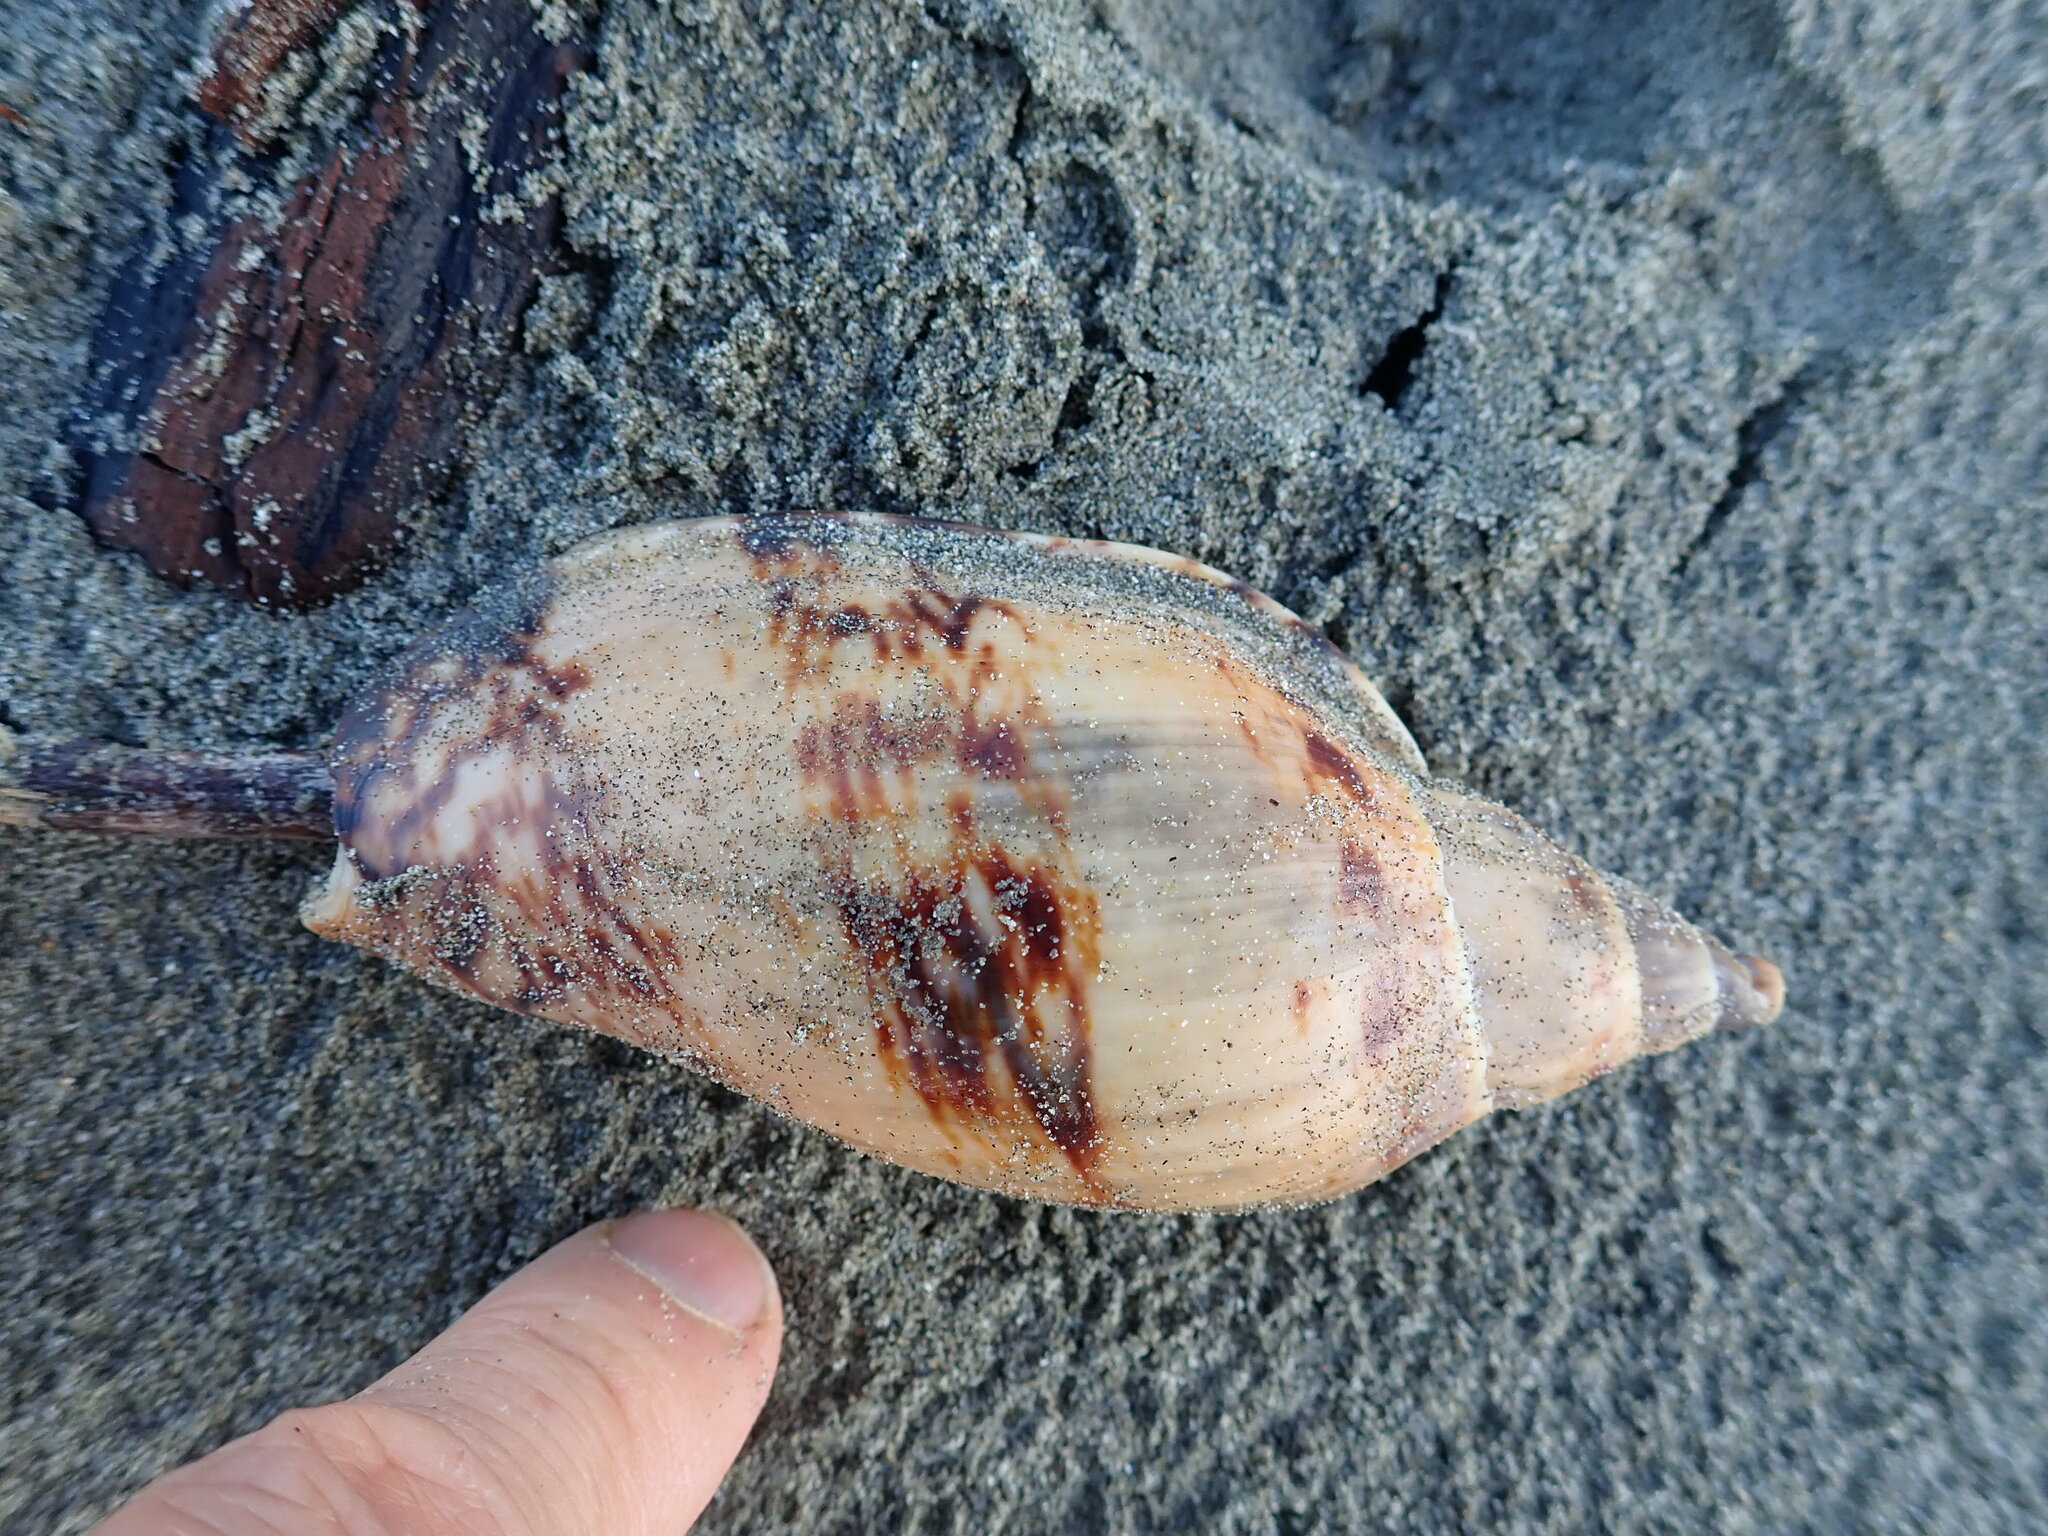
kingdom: Animalia
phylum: Mollusca
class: Gastropoda
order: Neogastropoda
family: Volutidae
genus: Alcithoe
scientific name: Alcithoe arabica
